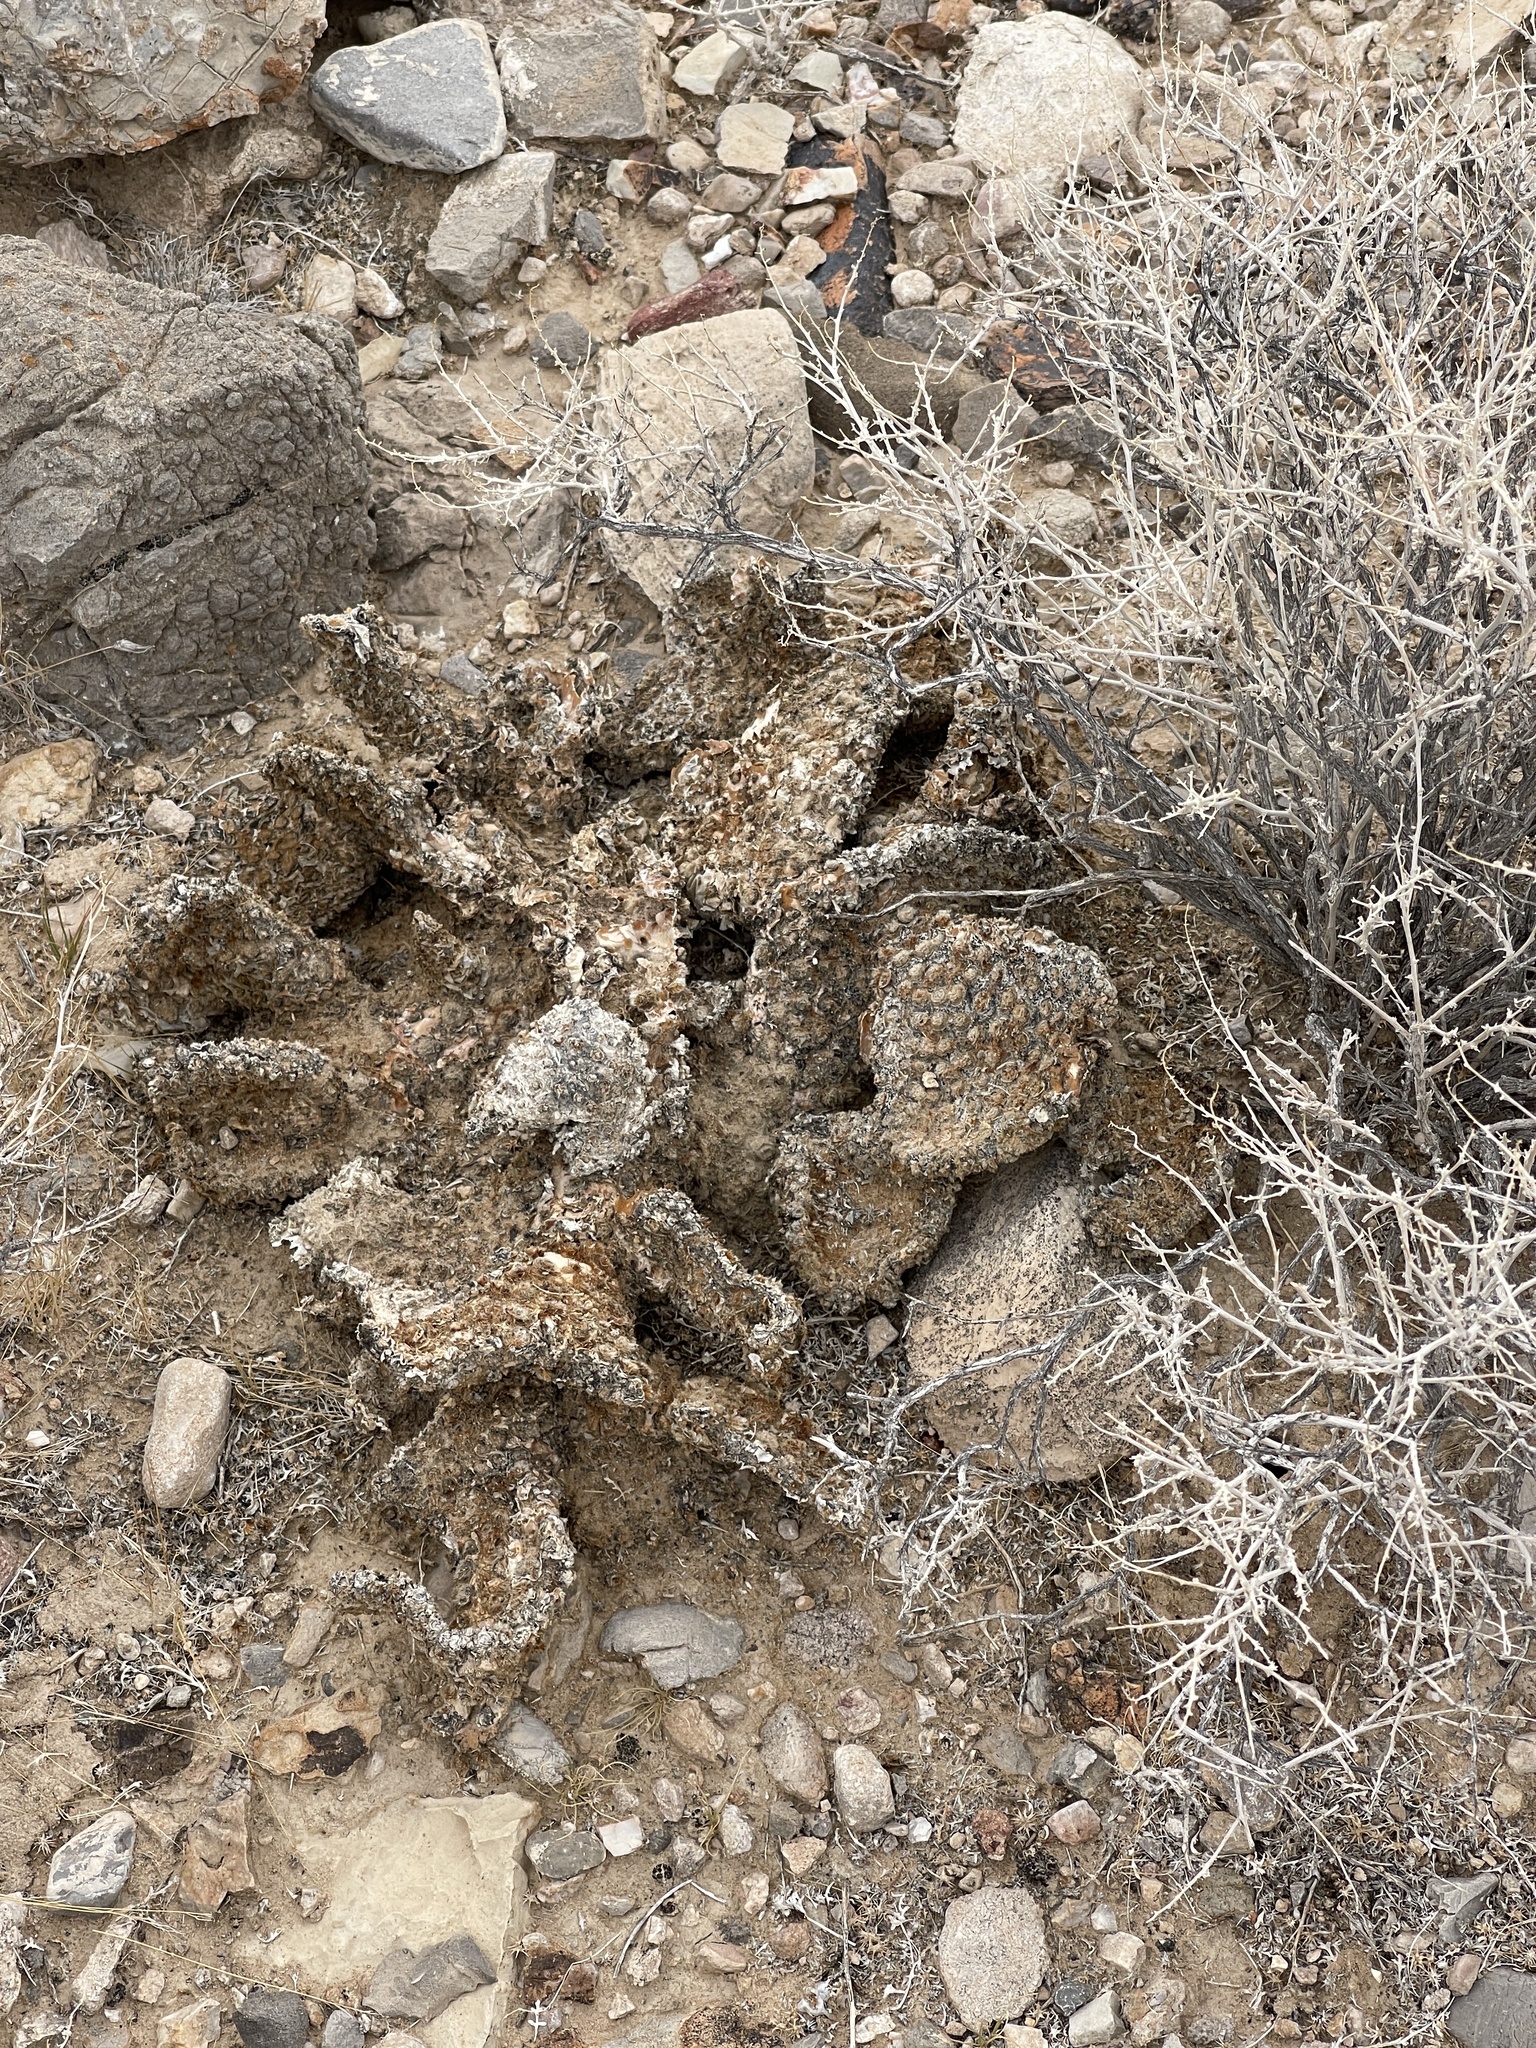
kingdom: Plantae
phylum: Tracheophyta
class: Magnoliopsida
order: Caryophyllales
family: Cactaceae
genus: Opuntia
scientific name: Opuntia basilaris
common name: Beavertail prickly-pear
